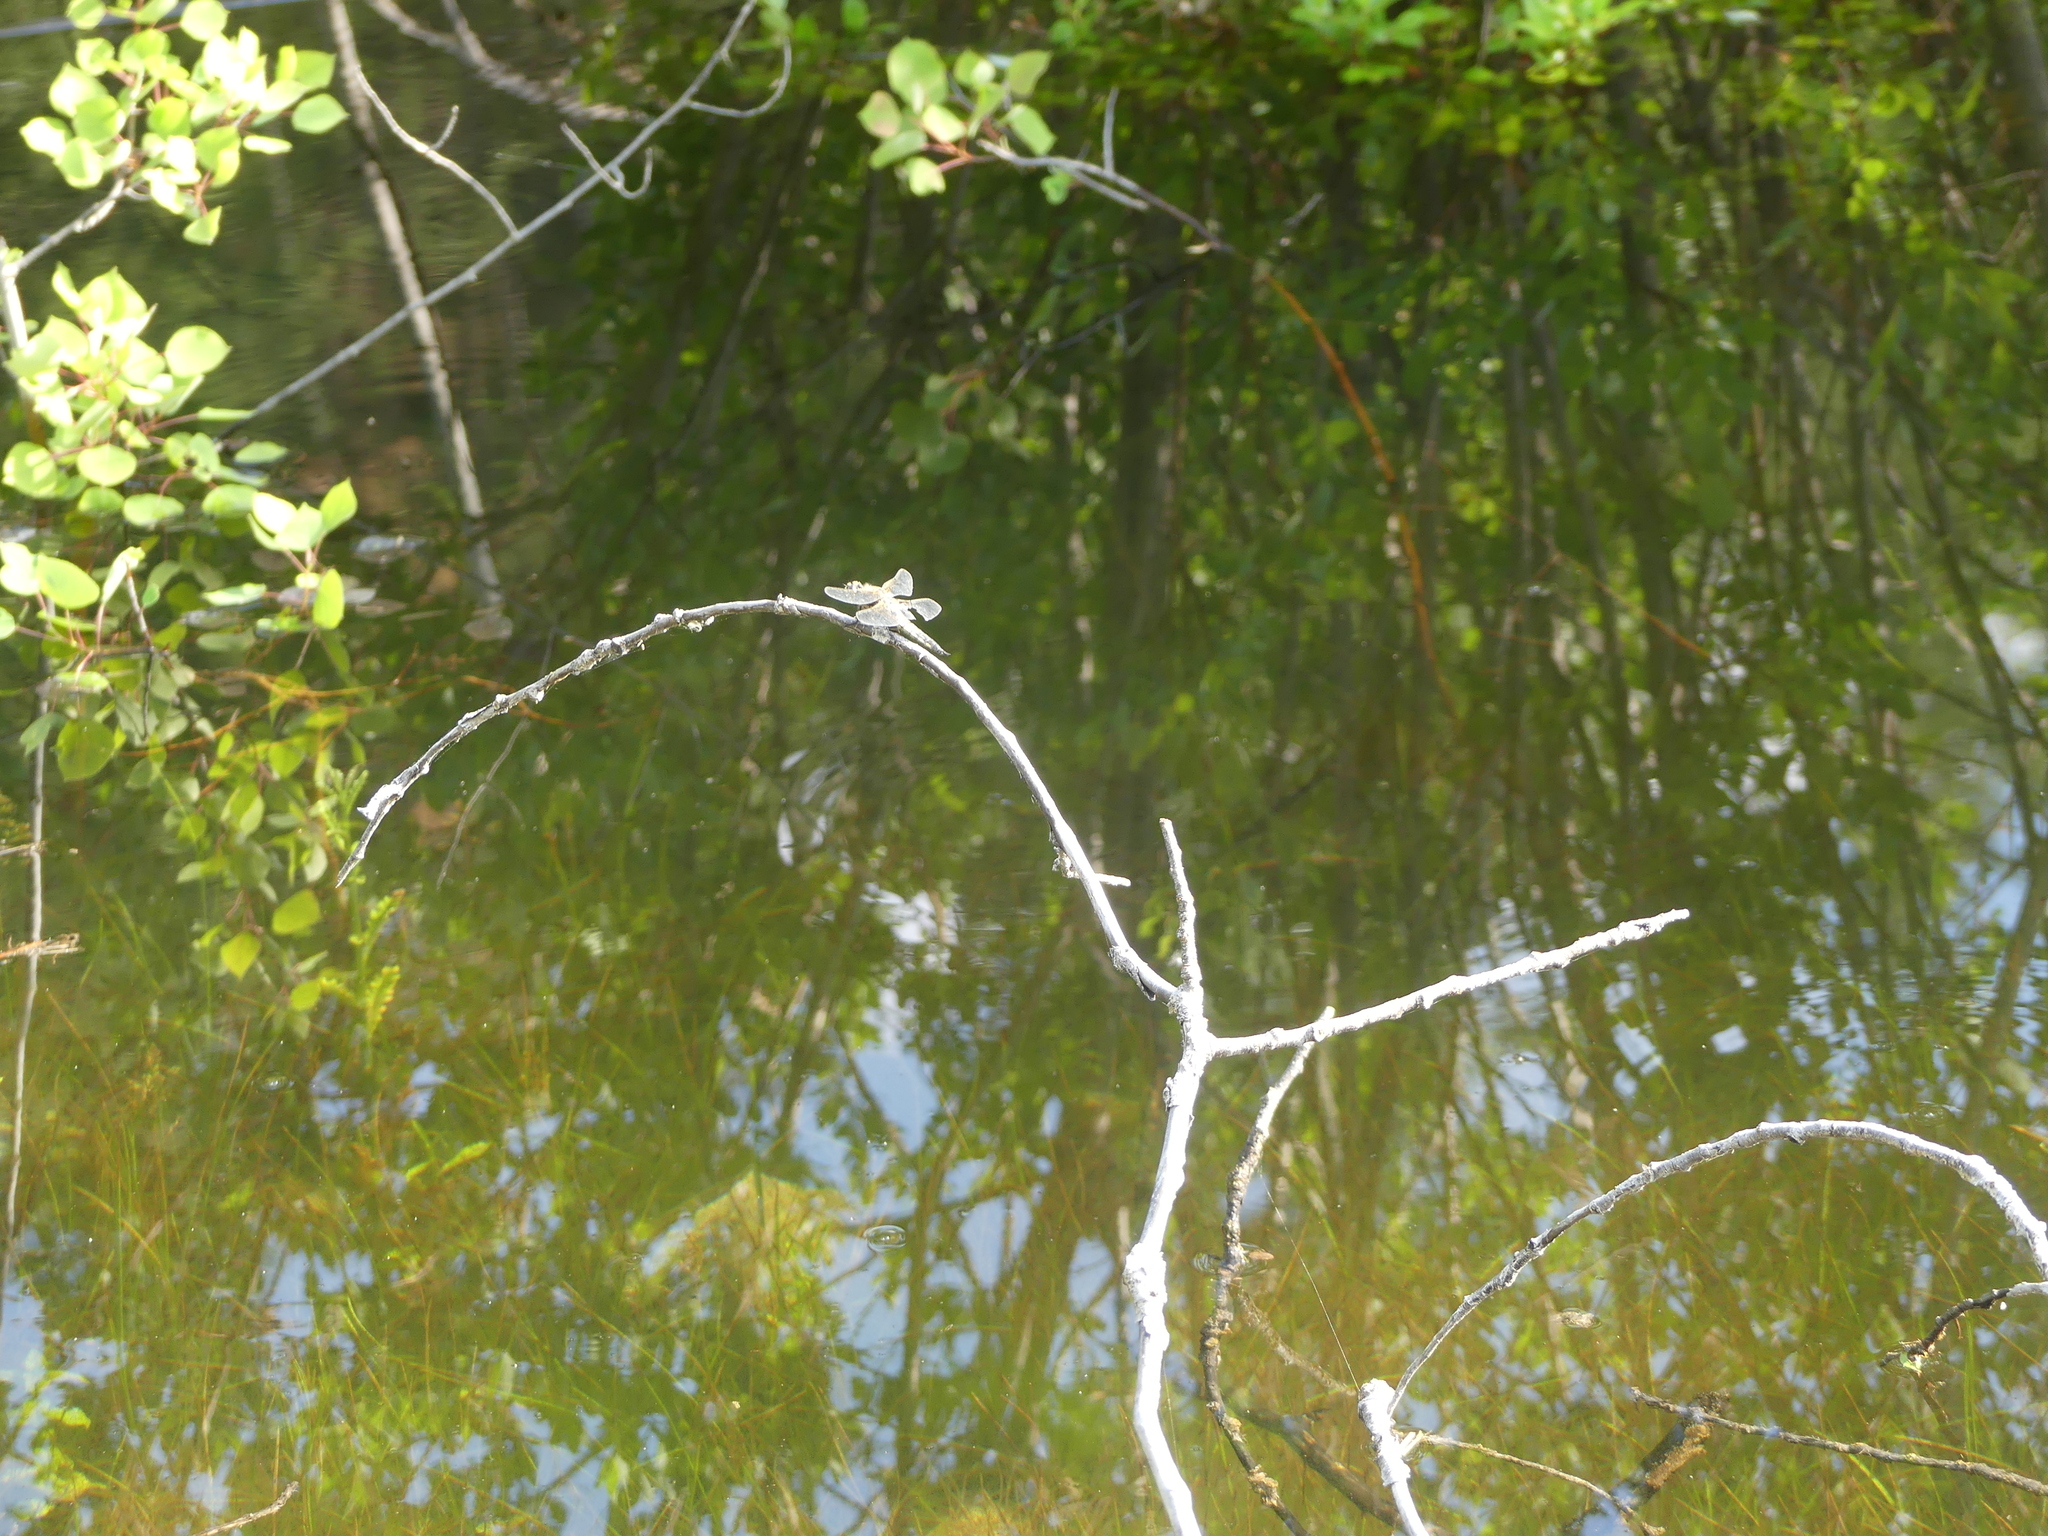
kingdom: Animalia
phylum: Arthropoda
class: Insecta
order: Odonata
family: Libellulidae
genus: Libellula
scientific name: Libellula quadrimaculata
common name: Four-spotted chaser
